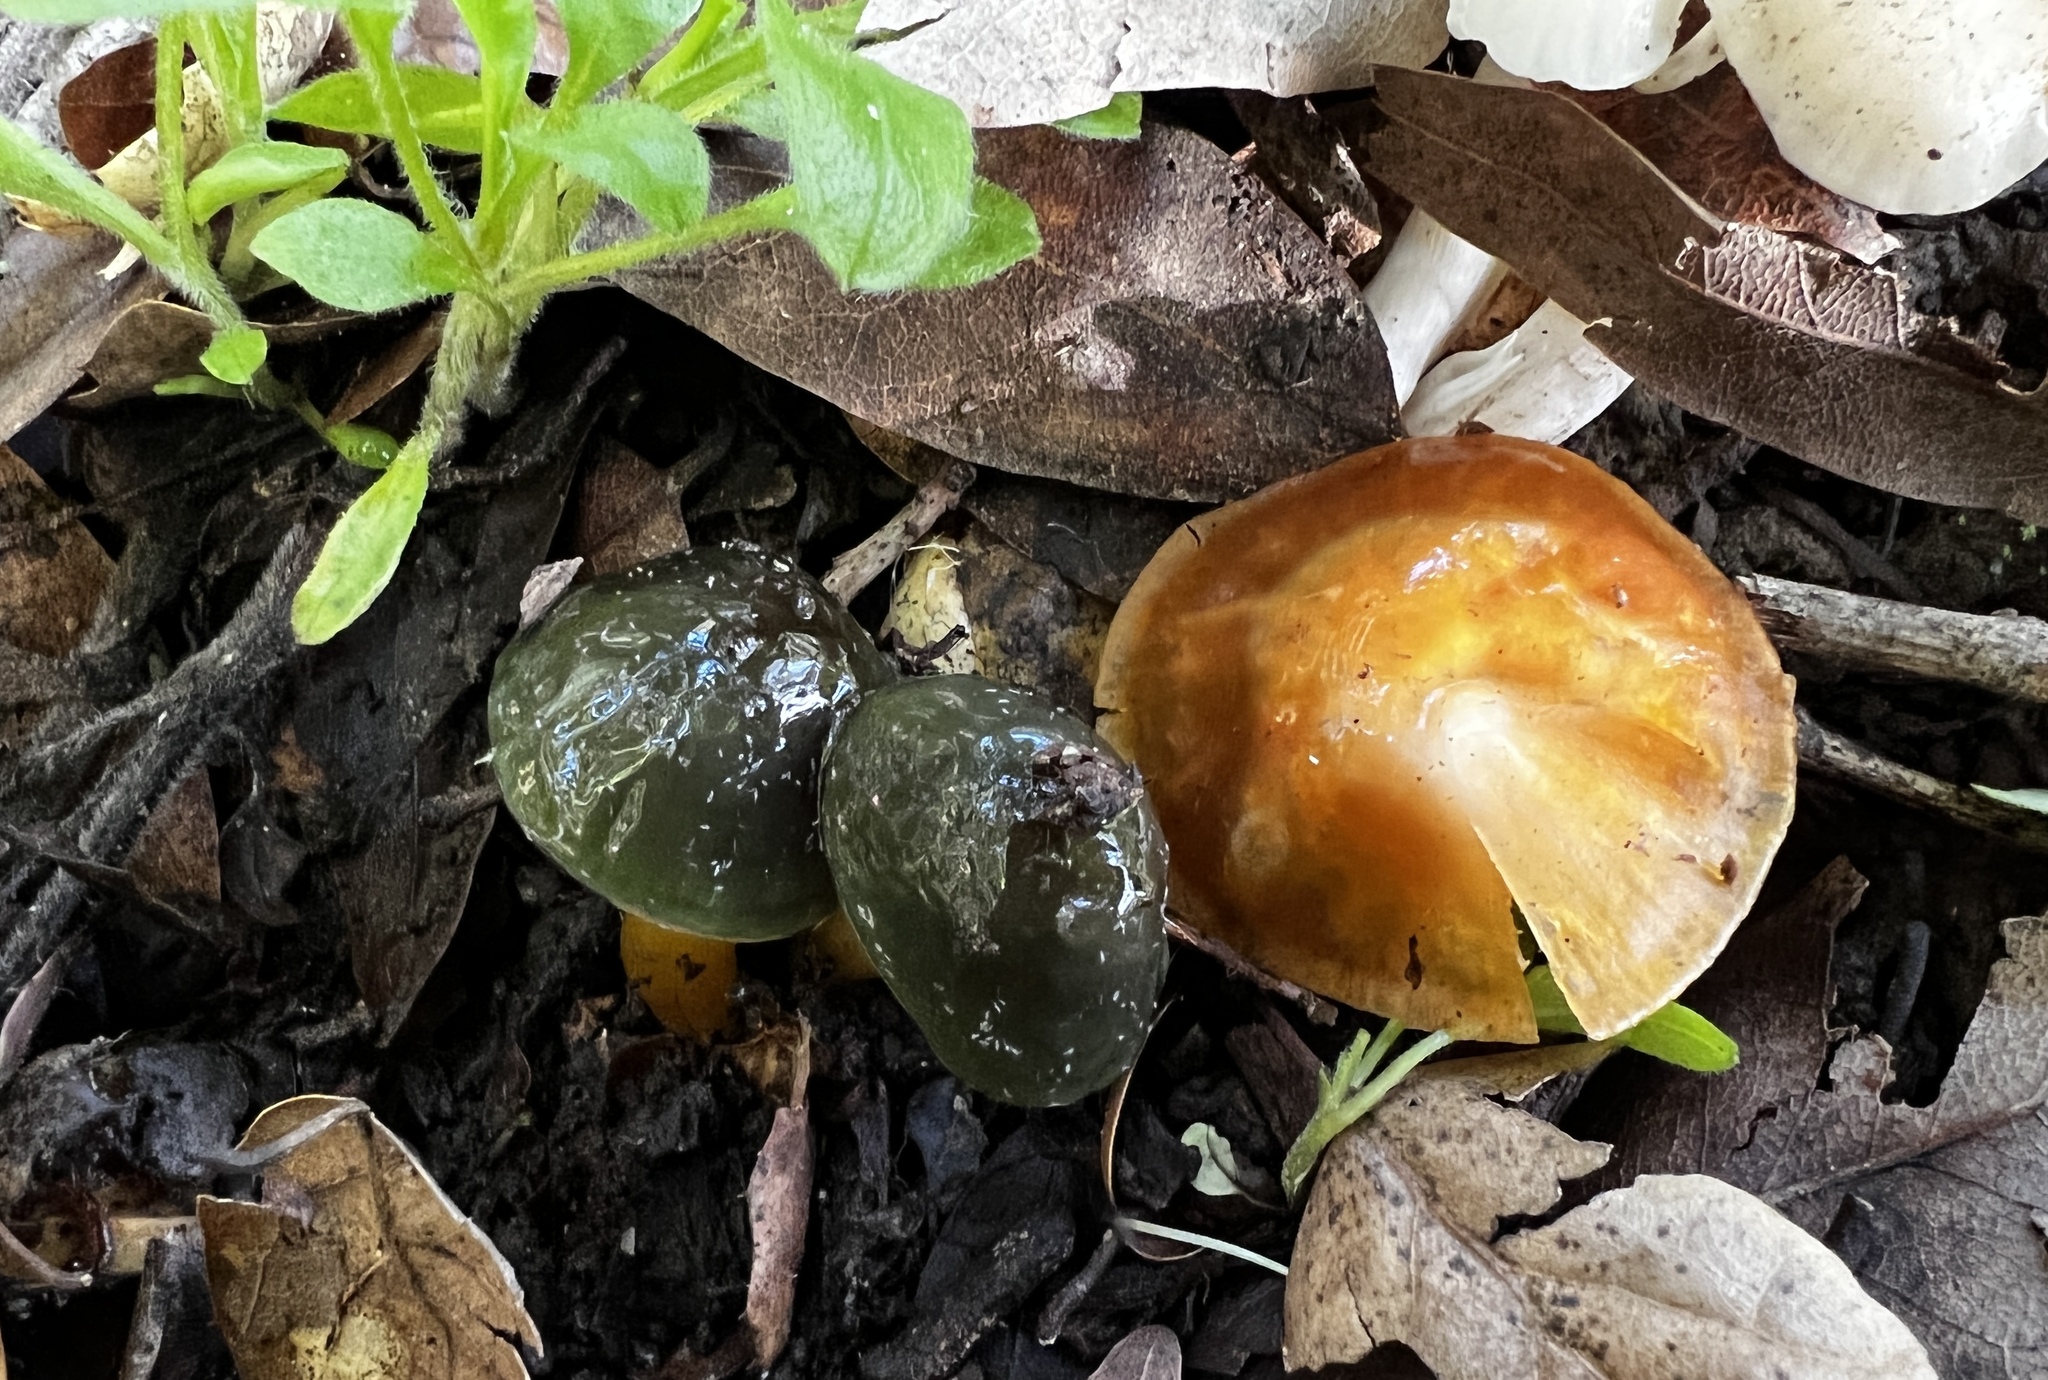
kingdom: Fungi
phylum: Basidiomycota
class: Agaricomycetes
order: Agaricales
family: Hygrophoraceae
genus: Gliophorus
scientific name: Gliophorus psittacinus
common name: Parrot wax-cap
